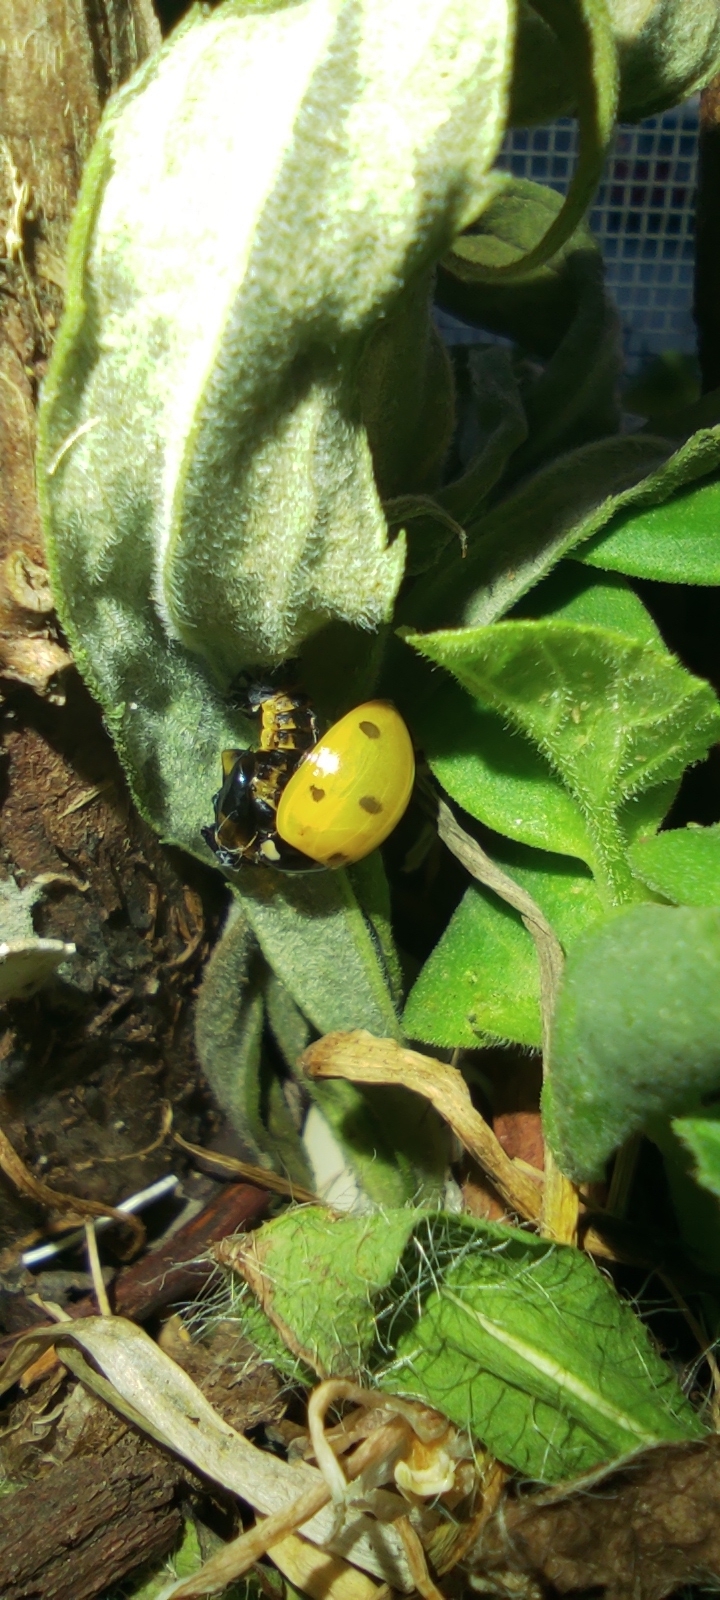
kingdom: Animalia
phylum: Arthropoda
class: Insecta
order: Coleoptera
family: Coccinellidae
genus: Coccinella
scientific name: Coccinella septempunctata
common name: Sevenspotted lady beetle
